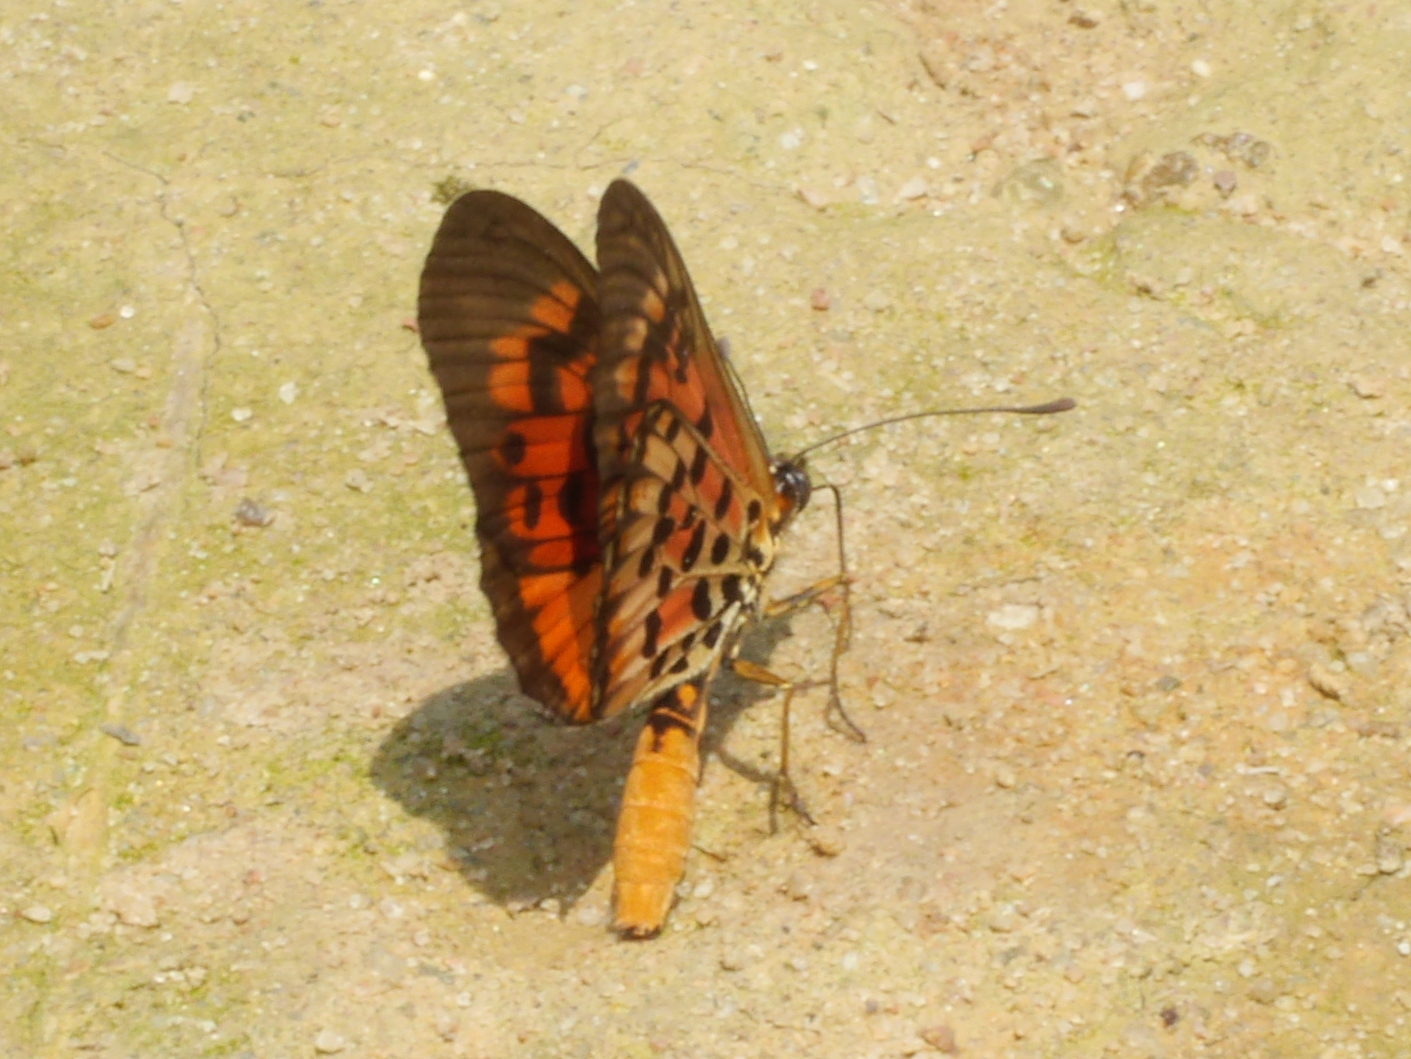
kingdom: Animalia
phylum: Arthropoda
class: Insecta
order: Lepidoptera
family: Nymphalidae
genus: Rubraea
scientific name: Rubraea
